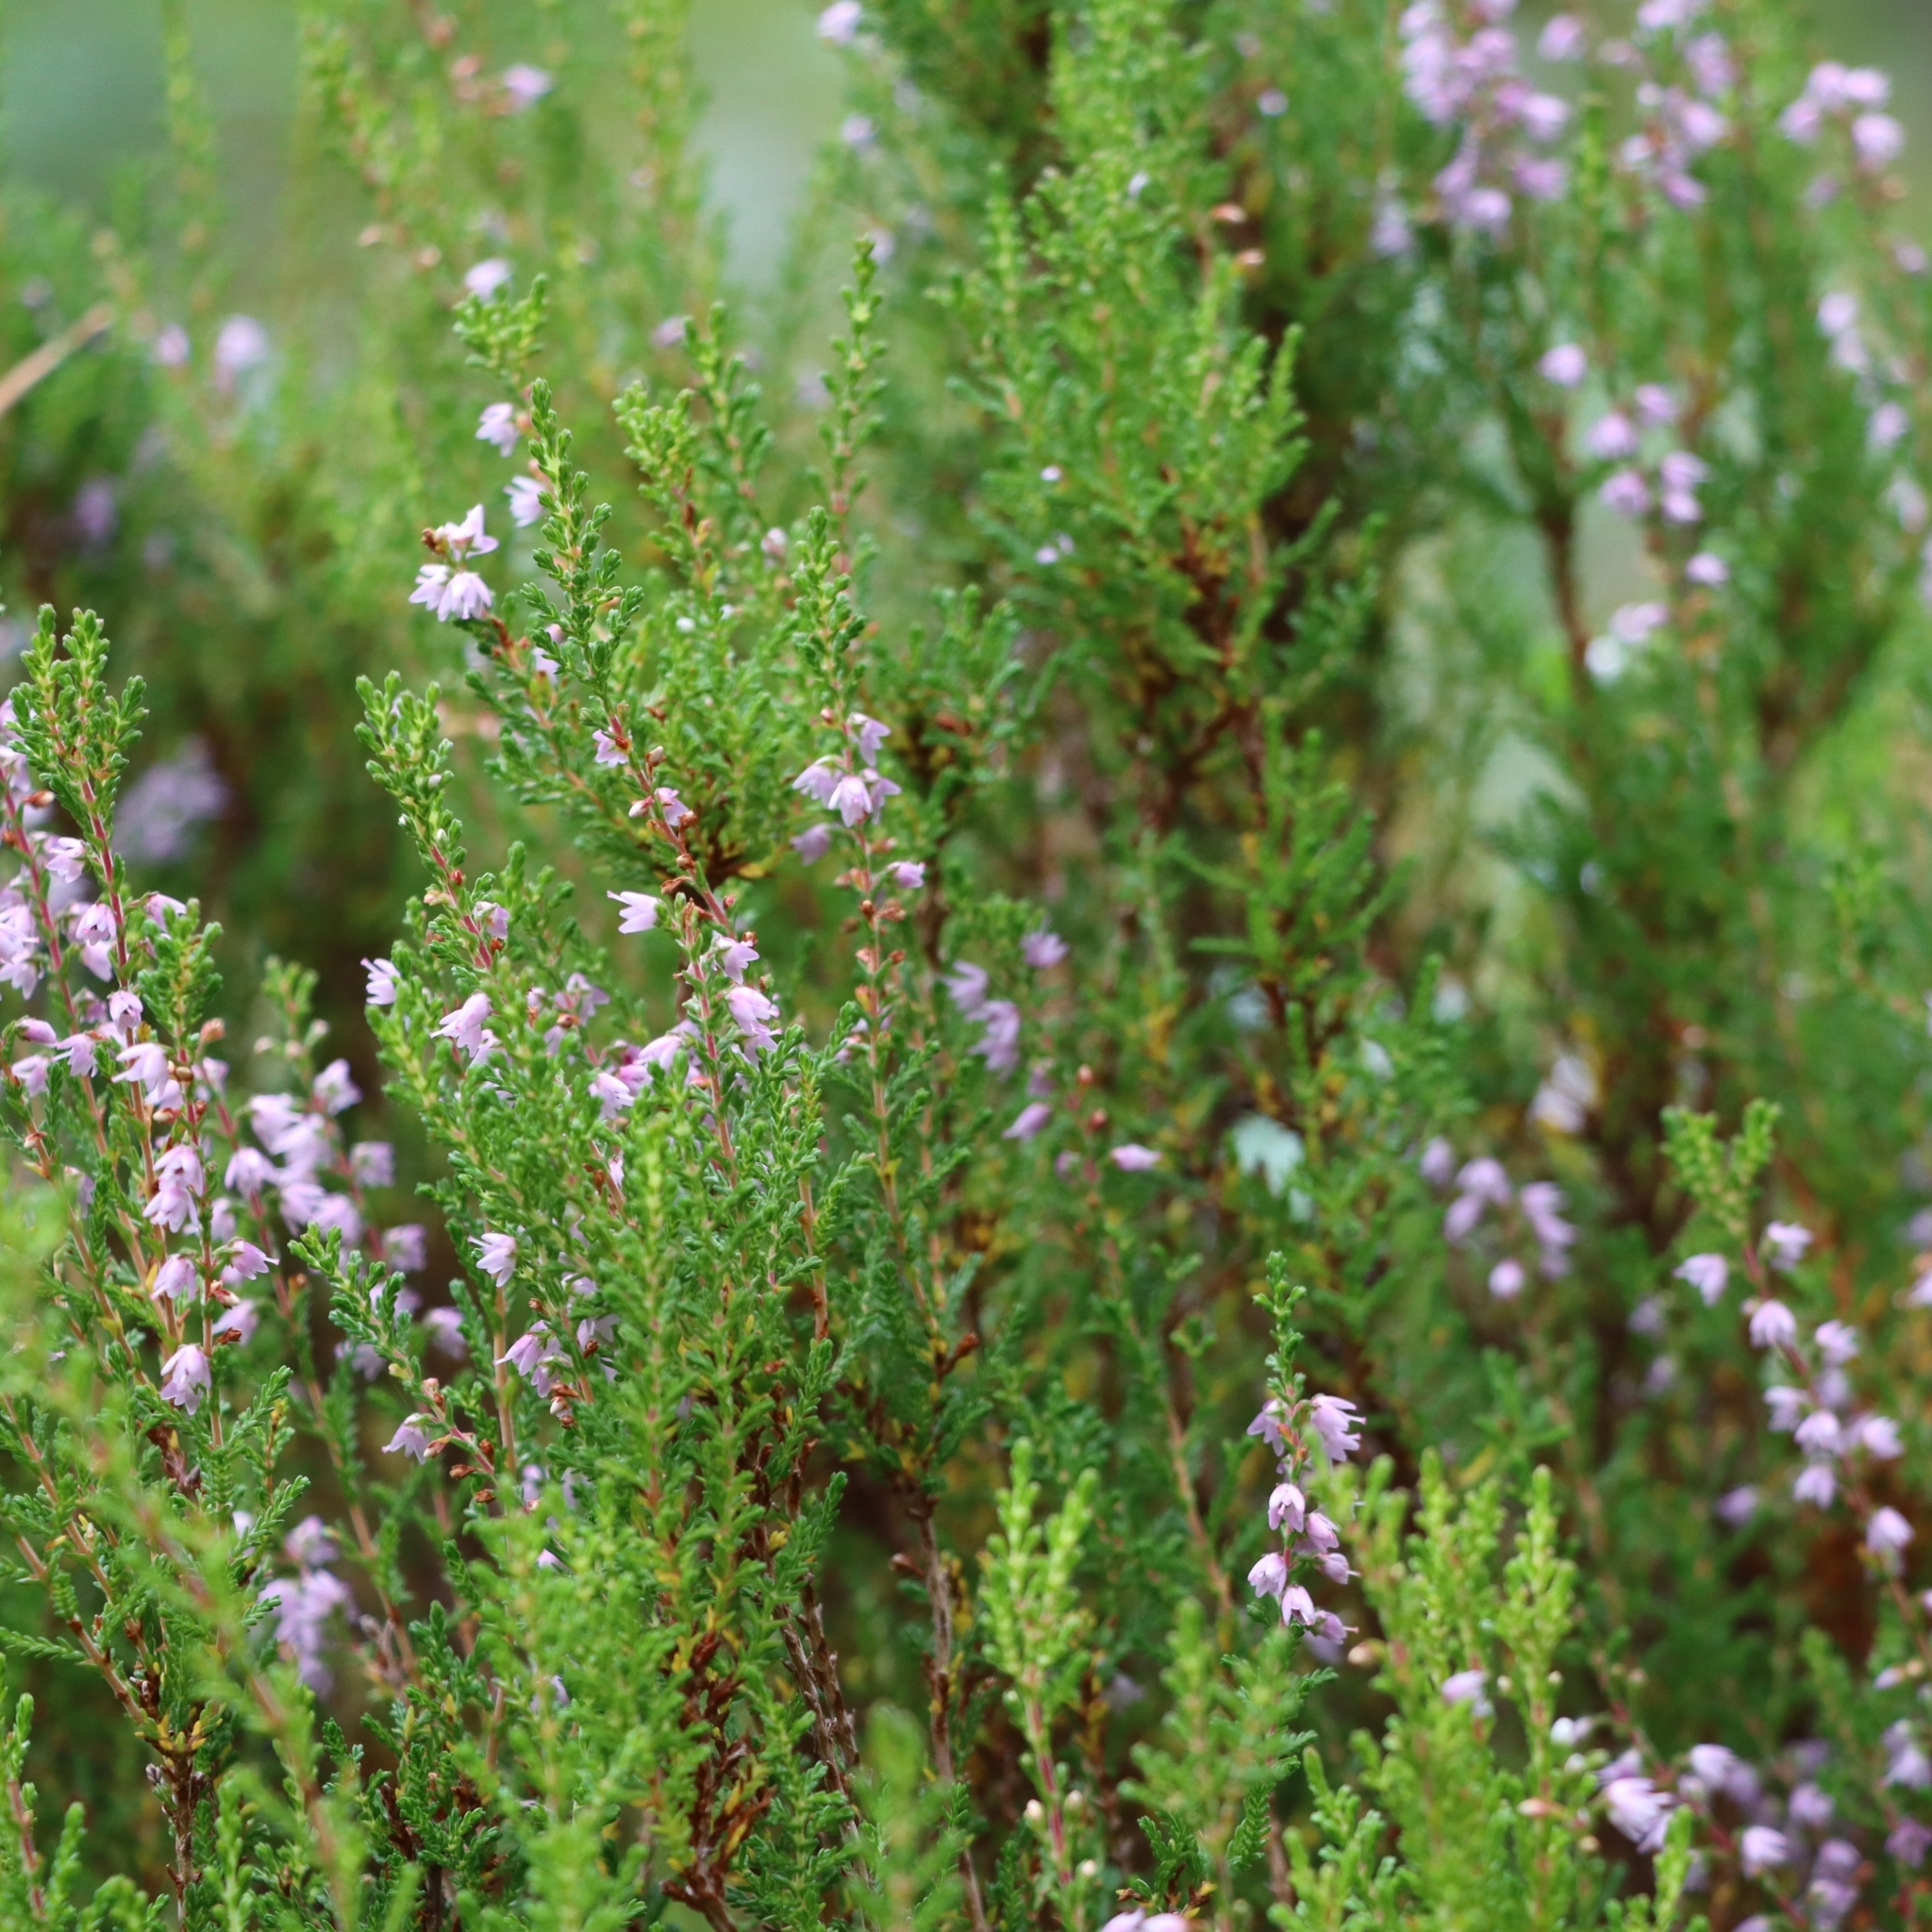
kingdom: Plantae
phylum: Tracheophyta
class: Magnoliopsida
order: Ericales
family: Ericaceae
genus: Calluna
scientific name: Calluna vulgaris
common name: Heather
